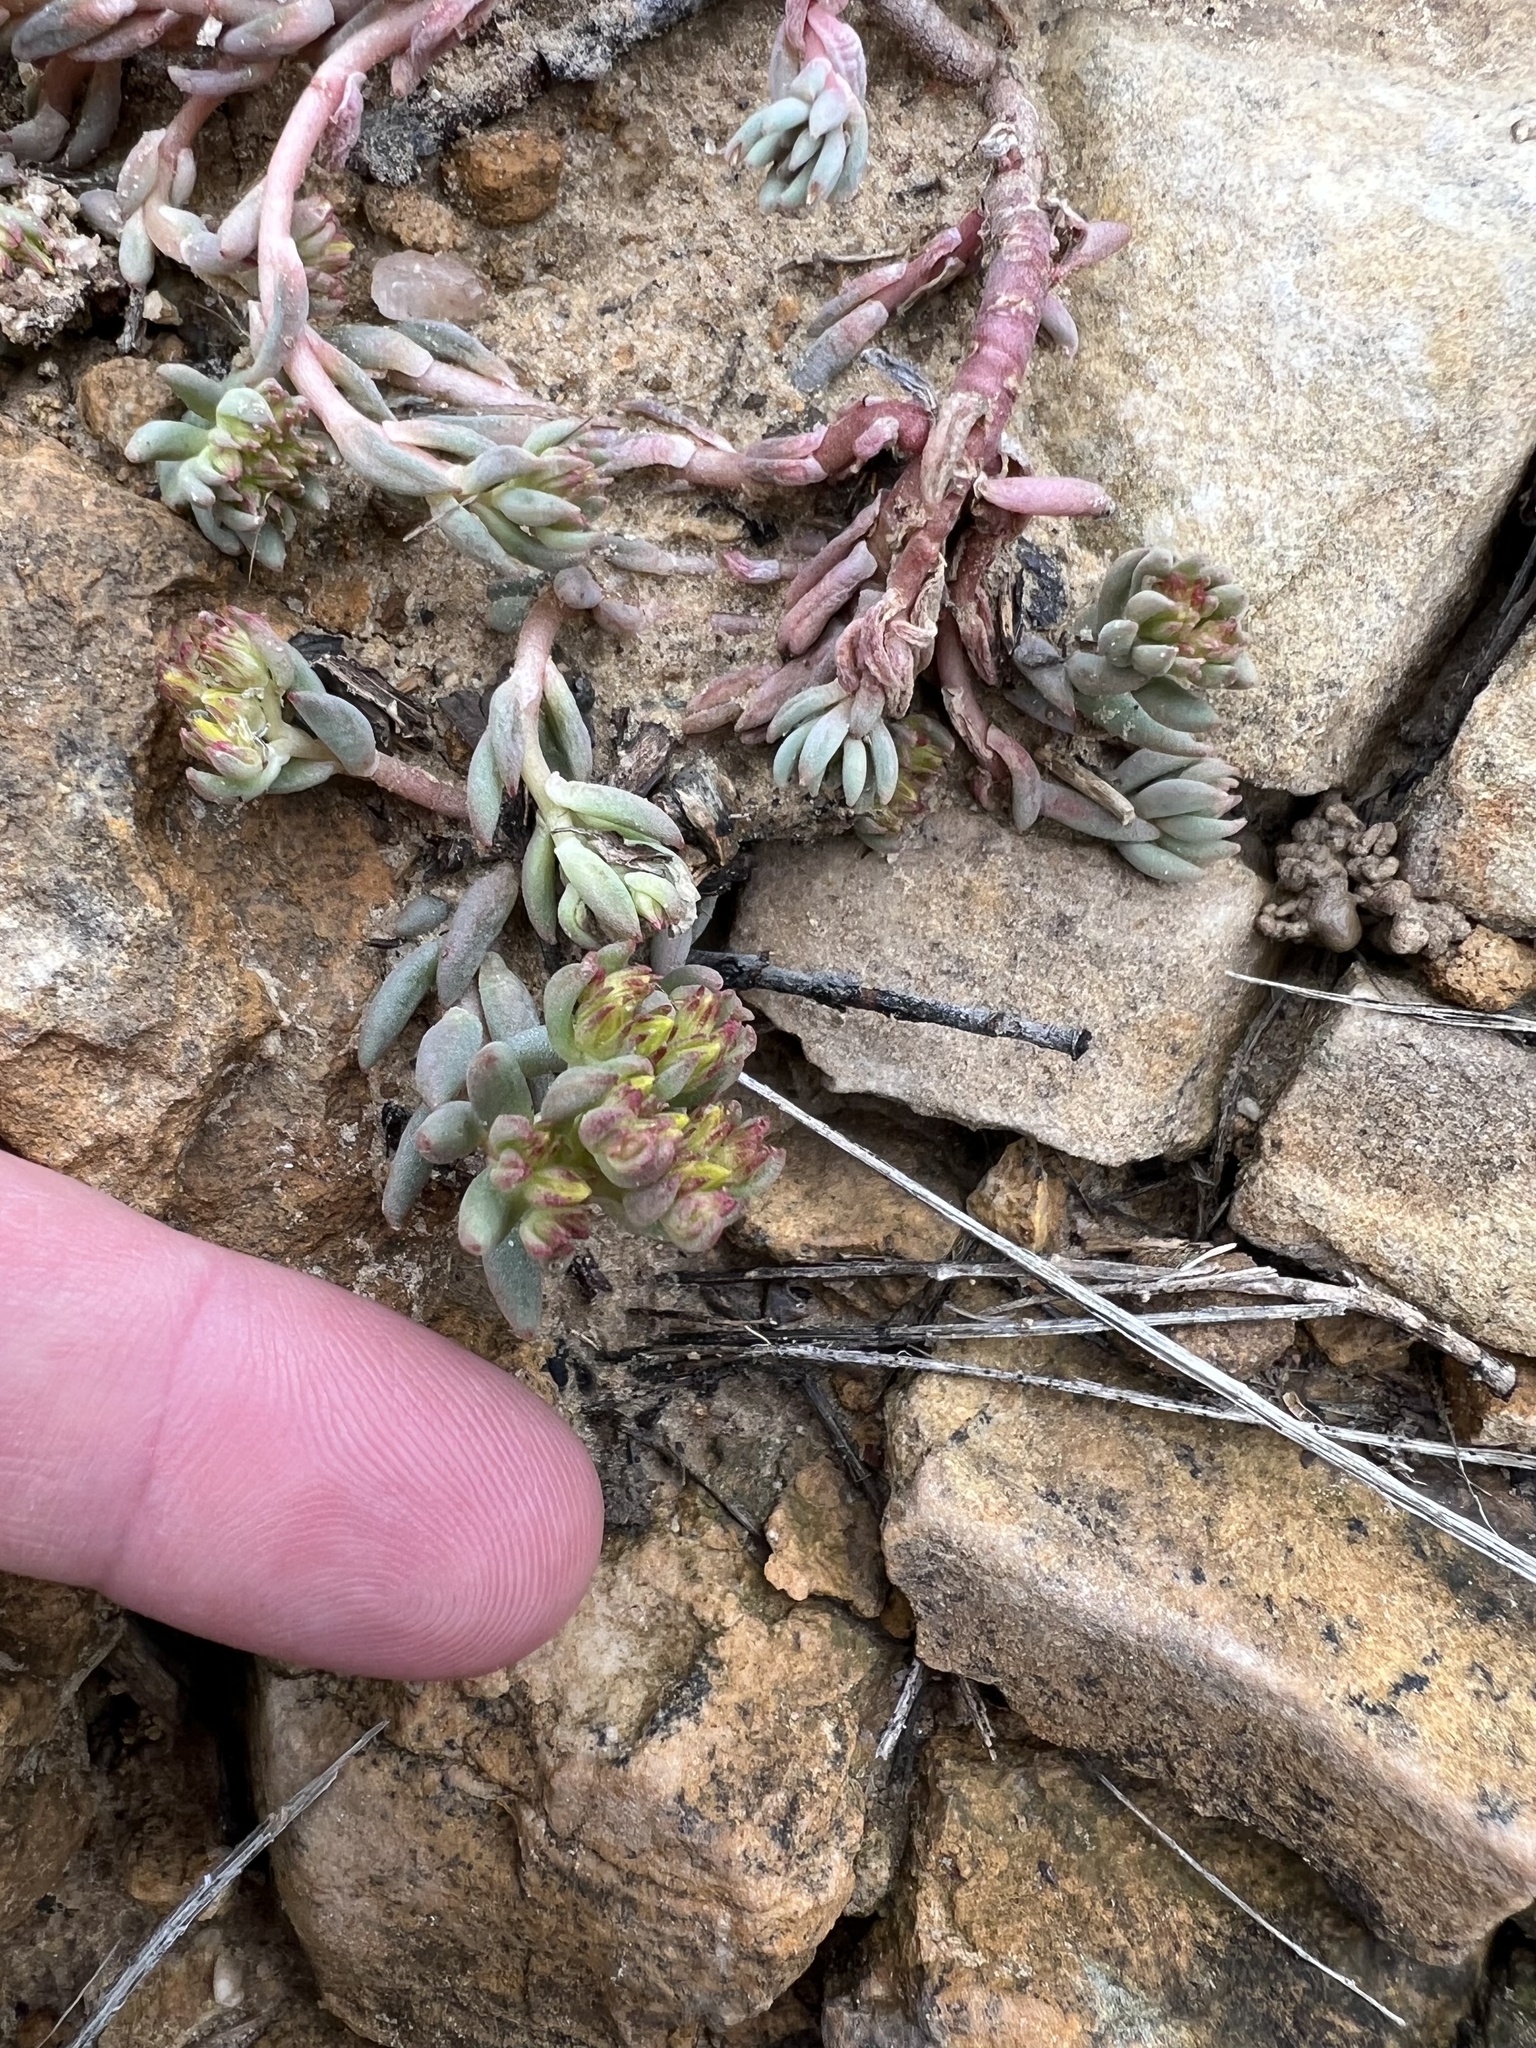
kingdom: Plantae
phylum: Tracheophyta
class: Magnoliopsida
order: Saxifragales
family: Crassulaceae
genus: Sedum
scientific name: Sedum lanceolatum
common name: Common stonecrop
